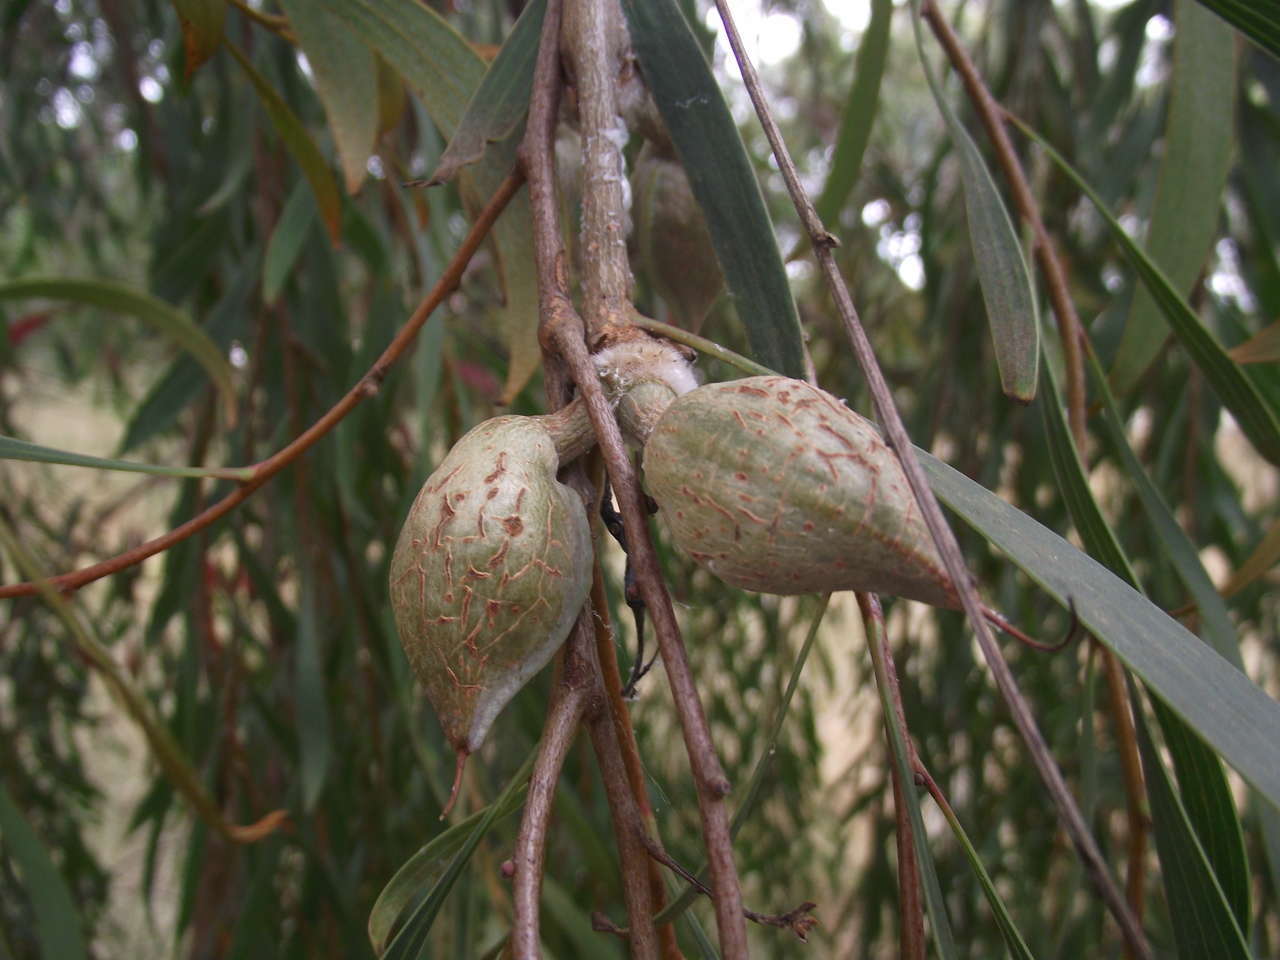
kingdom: Plantae
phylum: Tracheophyta
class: Magnoliopsida
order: Proteales
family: Proteaceae
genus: Hakea
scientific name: Hakea laurina
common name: Cushion hakea
